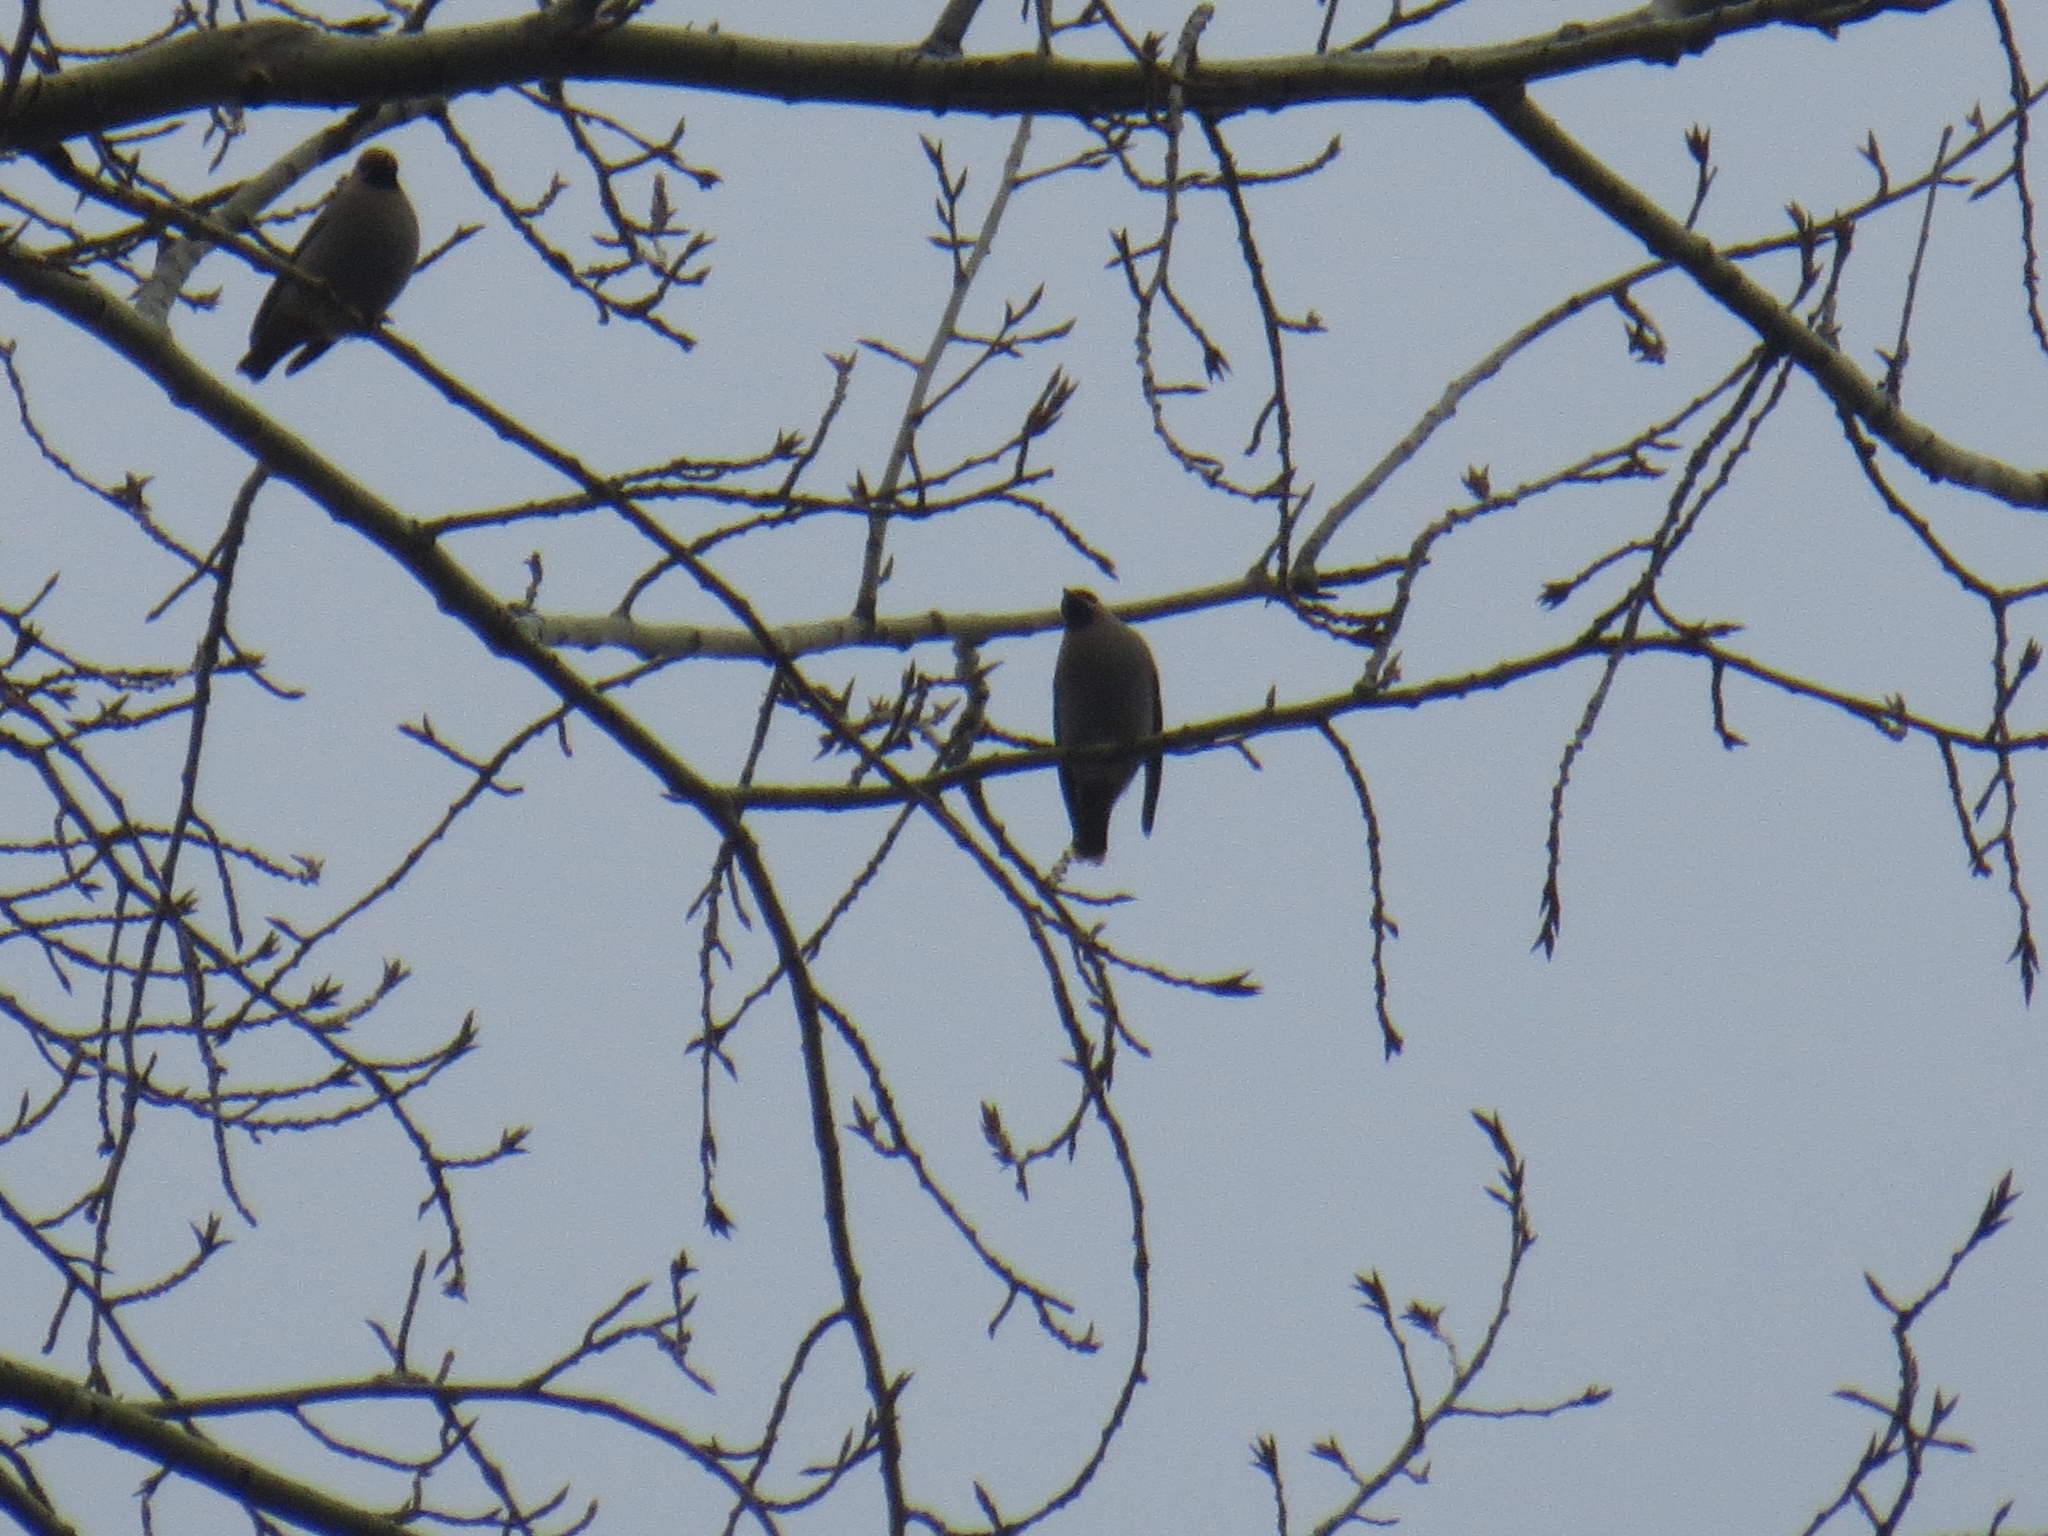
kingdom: Animalia
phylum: Chordata
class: Aves
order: Passeriformes
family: Bombycillidae
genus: Bombycilla
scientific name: Bombycilla garrulus
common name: Bohemian waxwing
